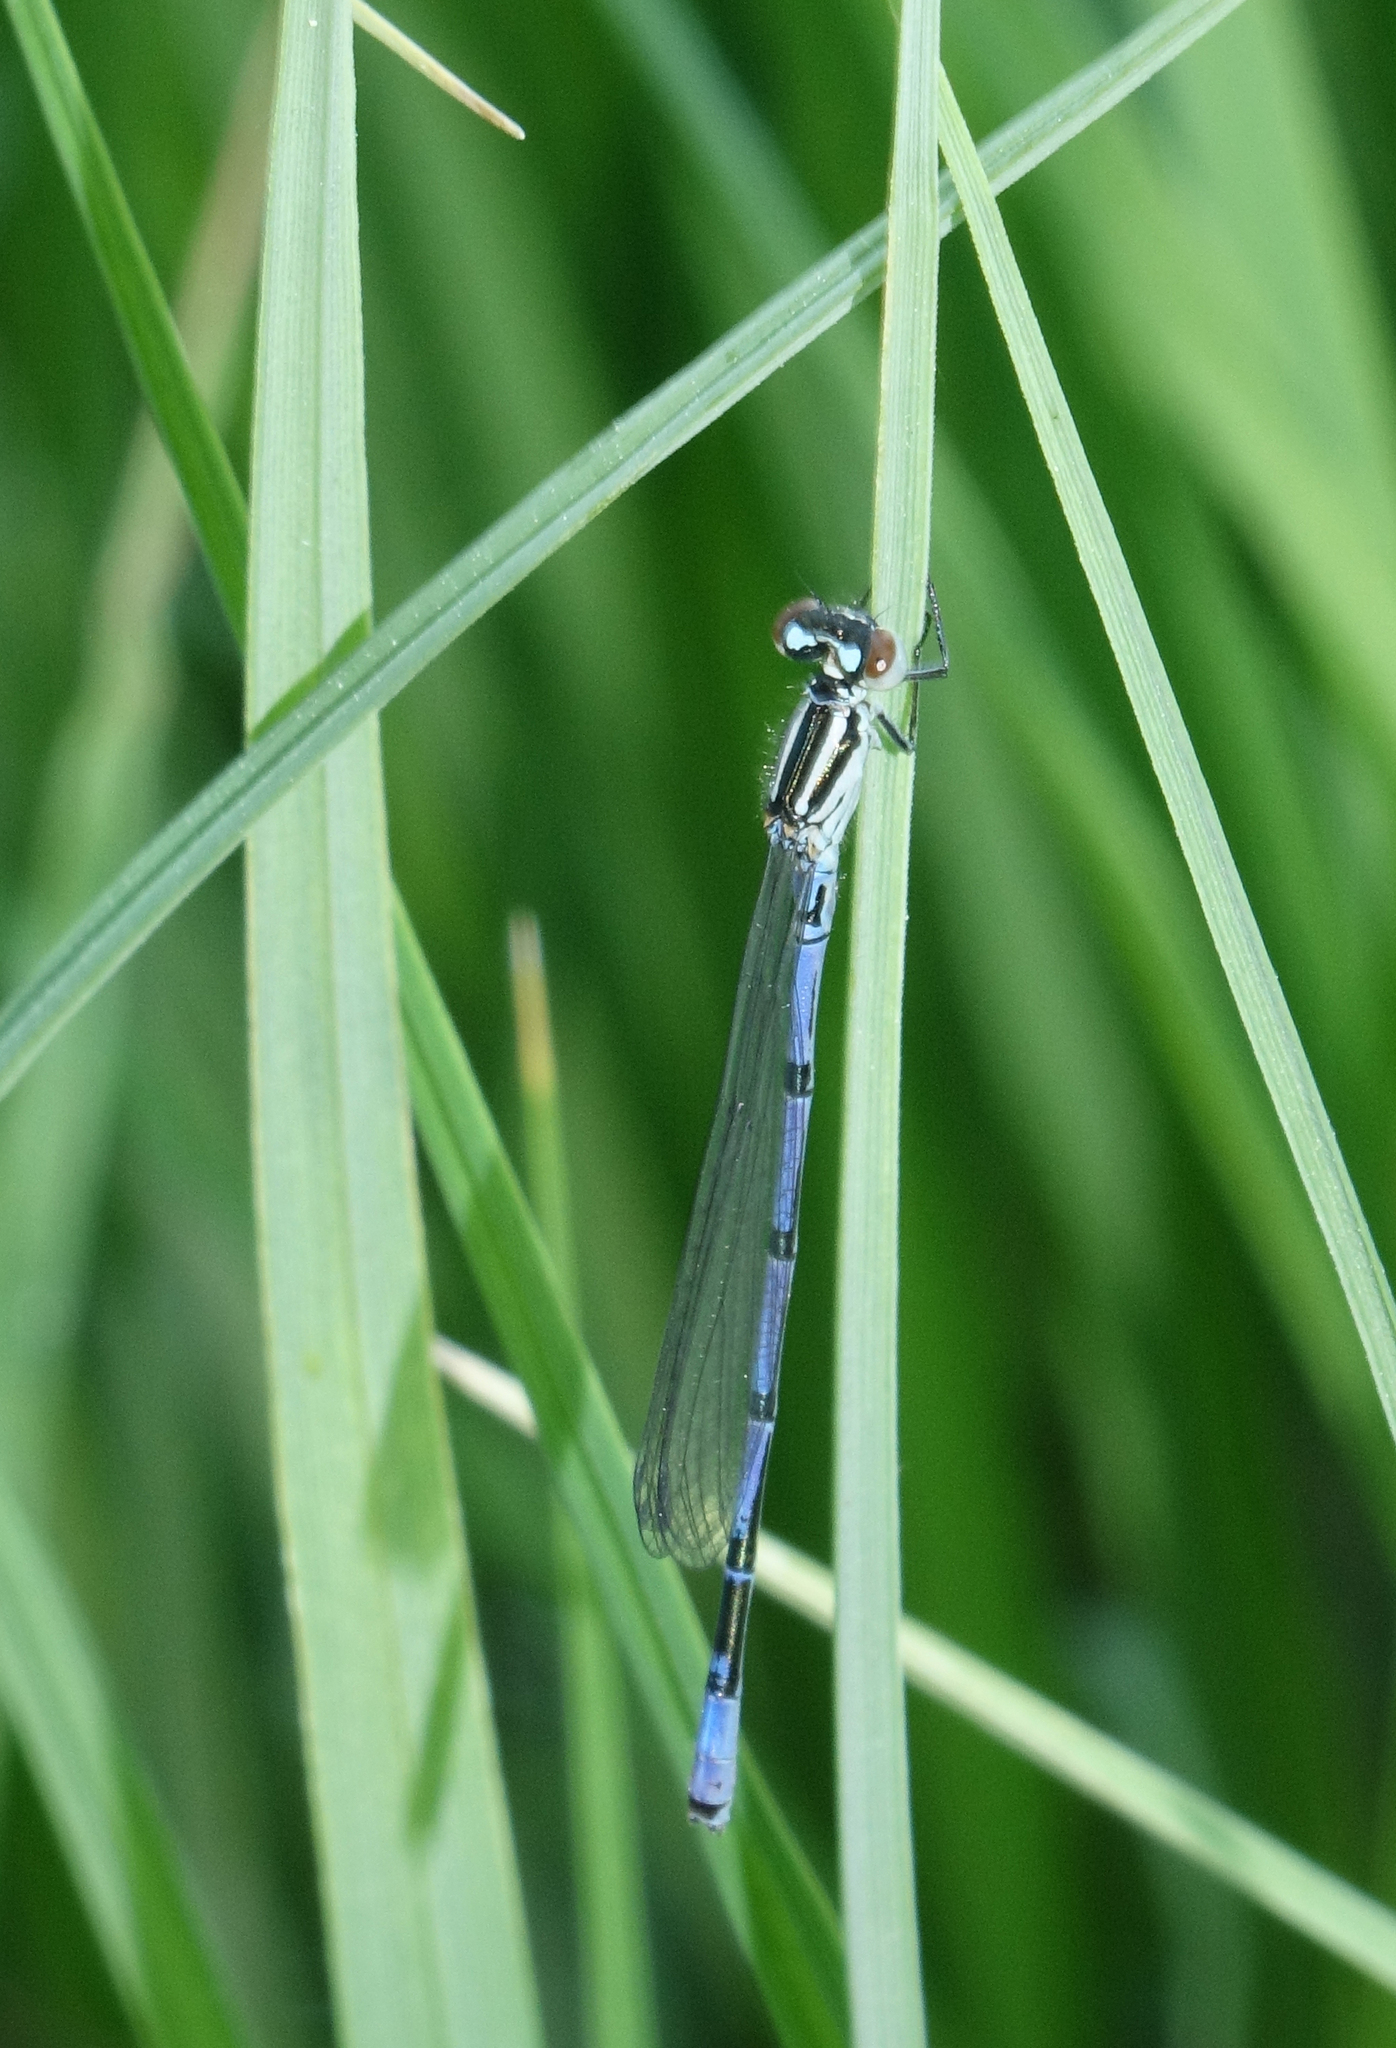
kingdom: Animalia
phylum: Arthropoda
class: Insecta
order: Odonata
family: Coenagrionidae
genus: Coenagrion
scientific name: Coenagrion puella
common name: Azure damselfly
